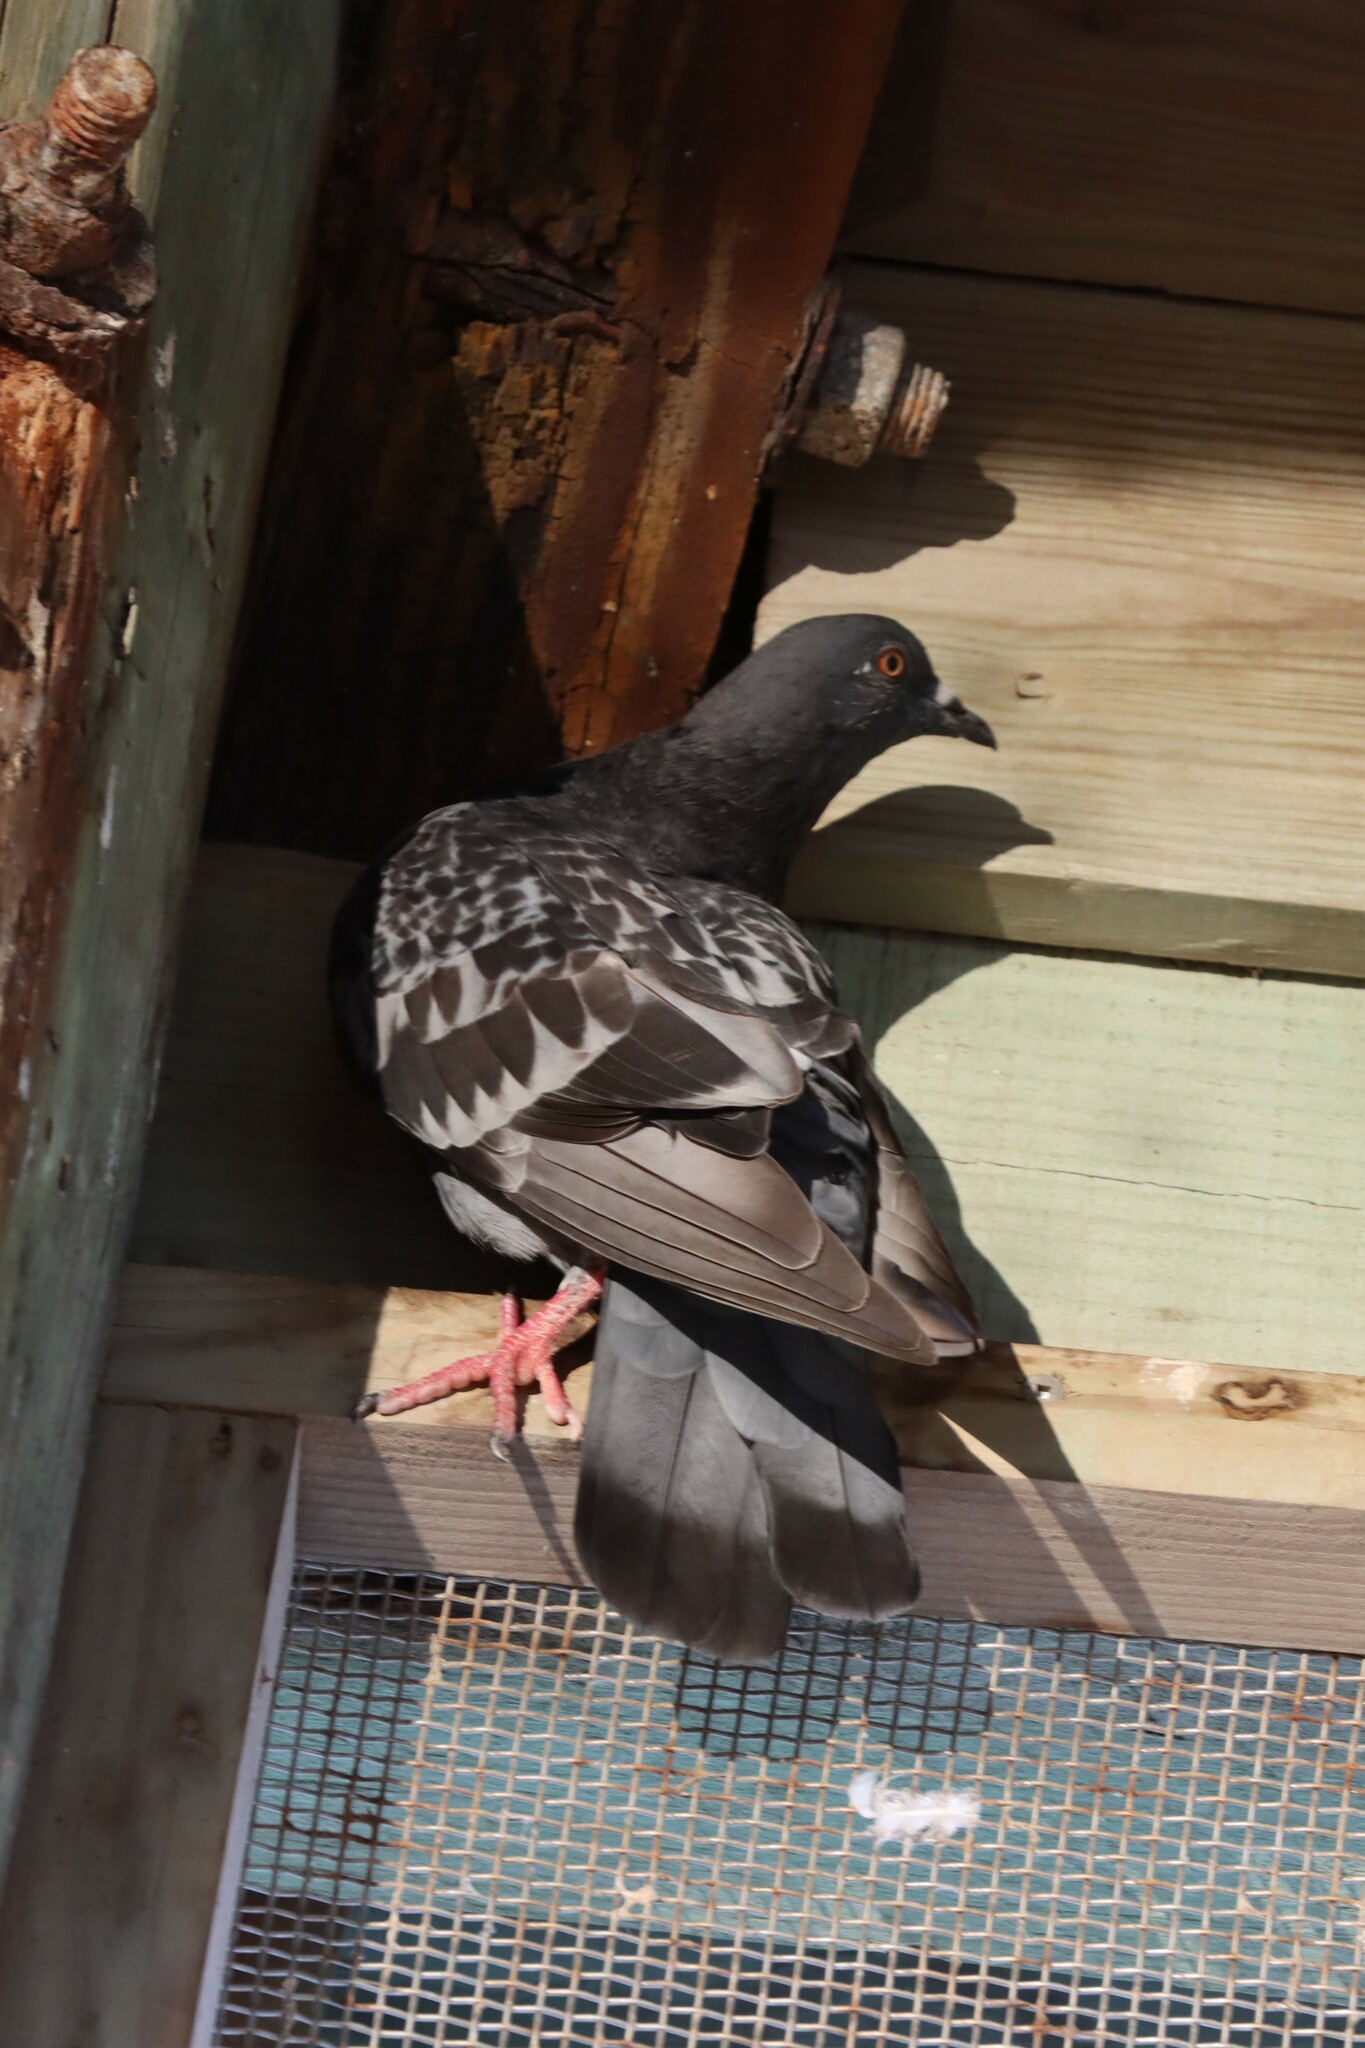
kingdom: Animalia
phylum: Chordata
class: Aves
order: Columbiformes
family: Columbidae
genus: Columba
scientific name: Columba livia
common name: Rock pigeon
